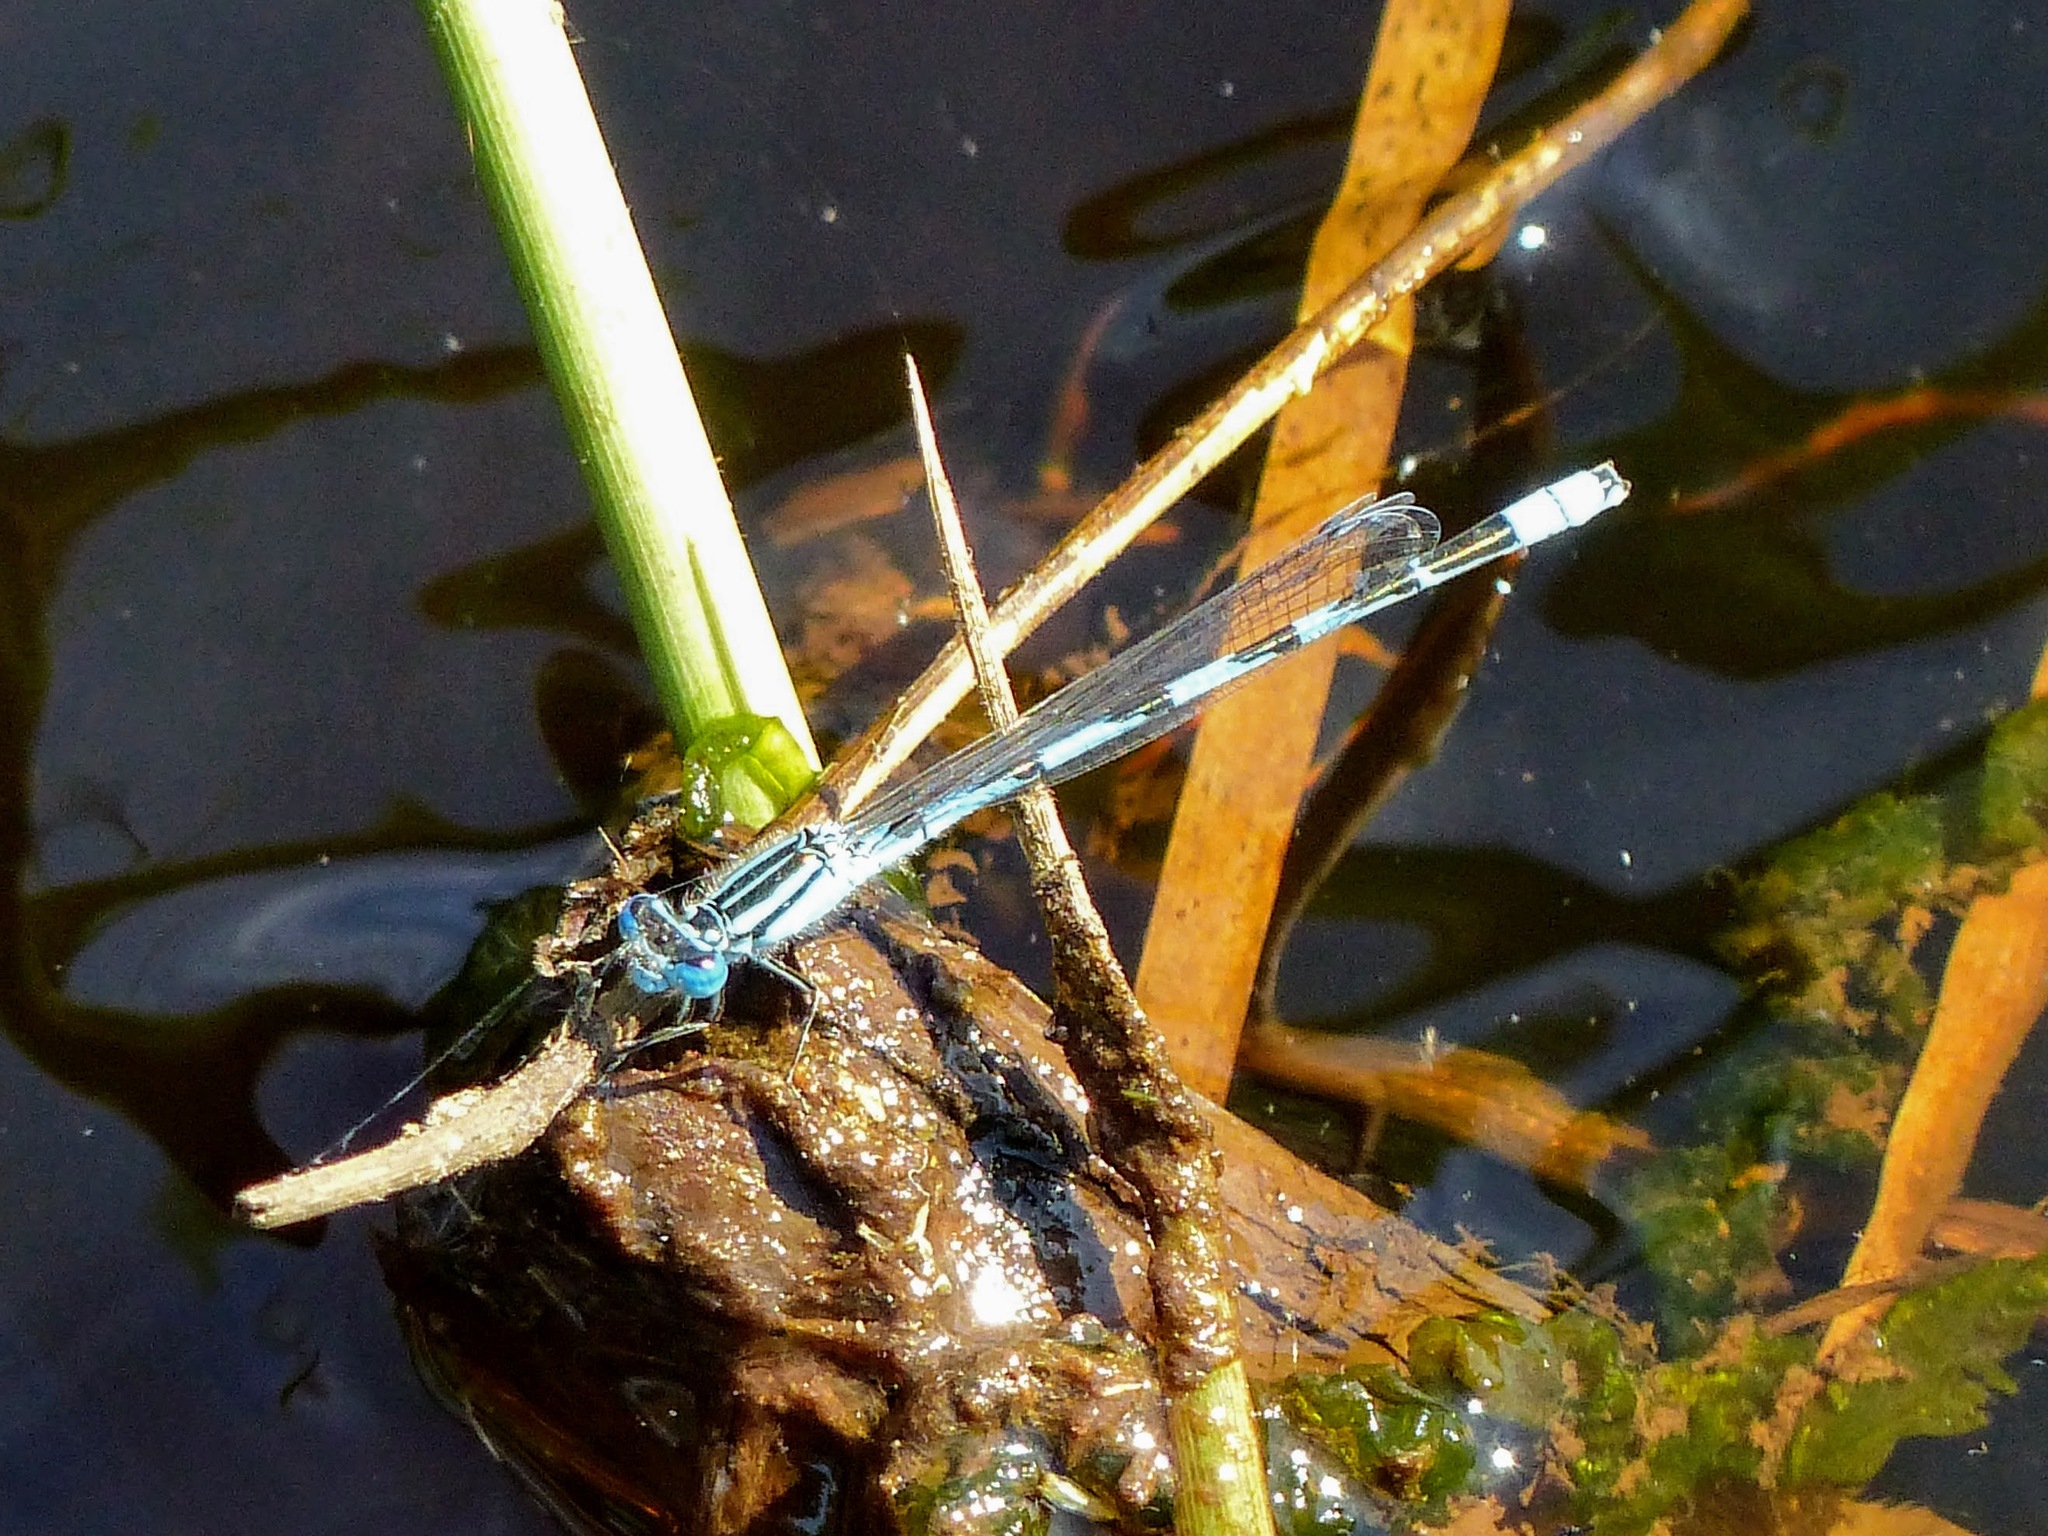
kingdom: Animalia
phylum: Arthropoda
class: Insecta
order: Odonata
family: Coenagrionidae
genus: Enallagma
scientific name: Enallagma durum
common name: Big bluet
